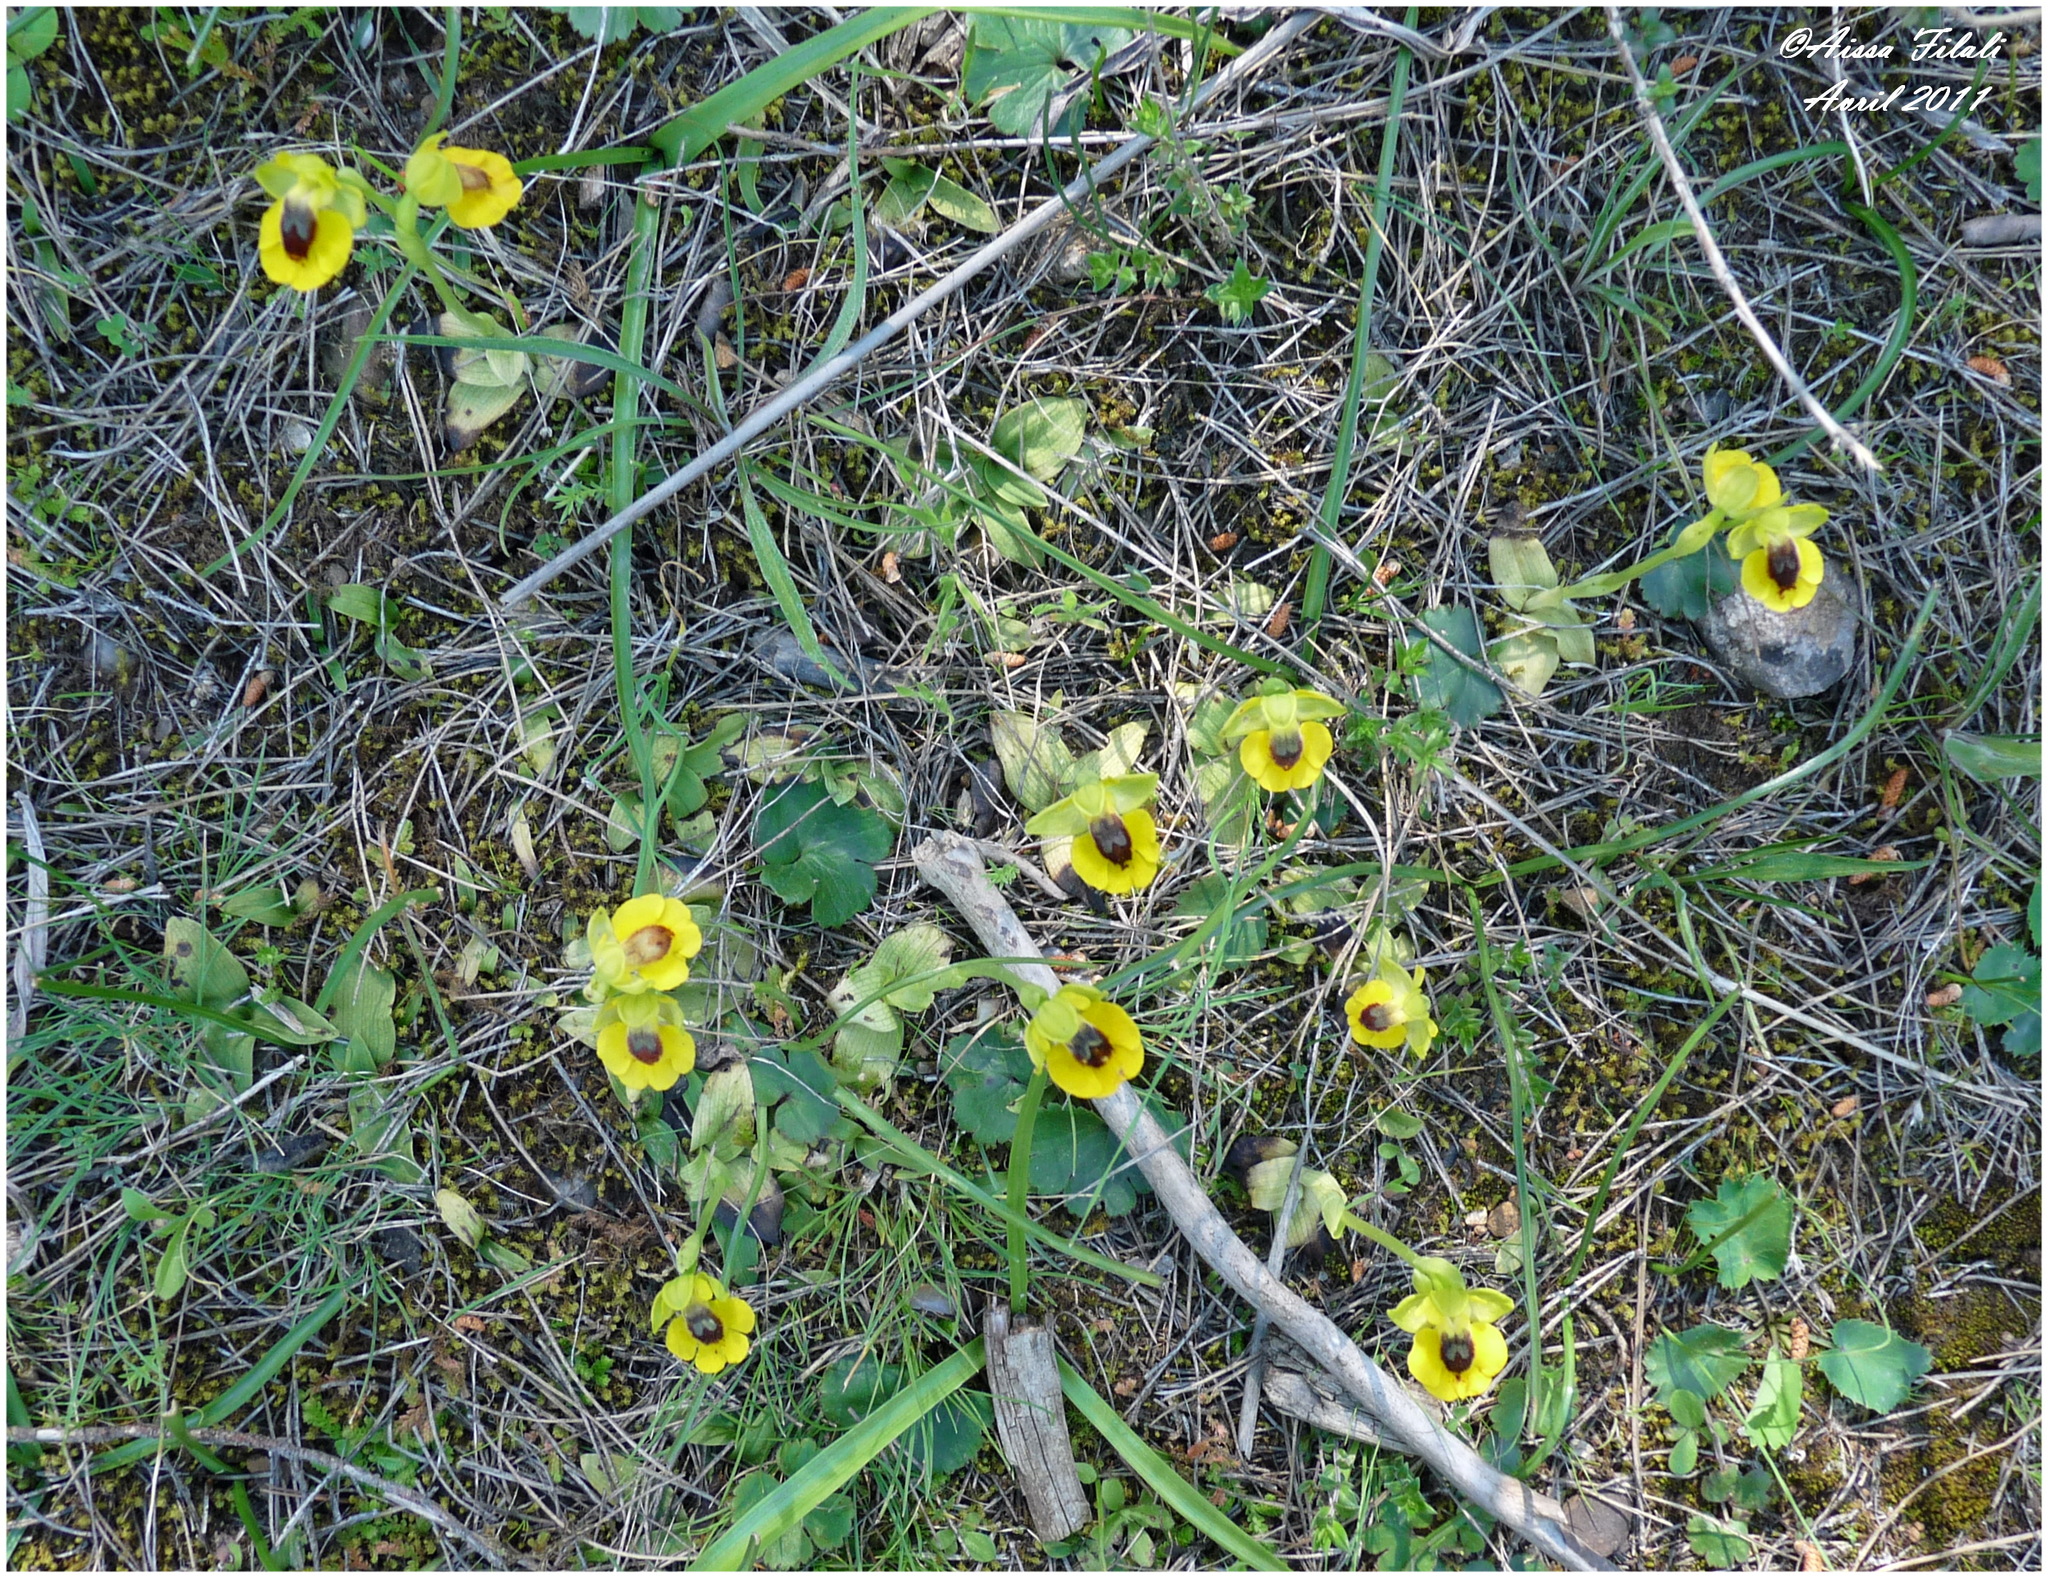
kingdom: Plantae
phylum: Tracheophyta
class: Liliopsida
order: Asparagales
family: Orchidaceae
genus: Ophrys
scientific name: Ophrys lutea
